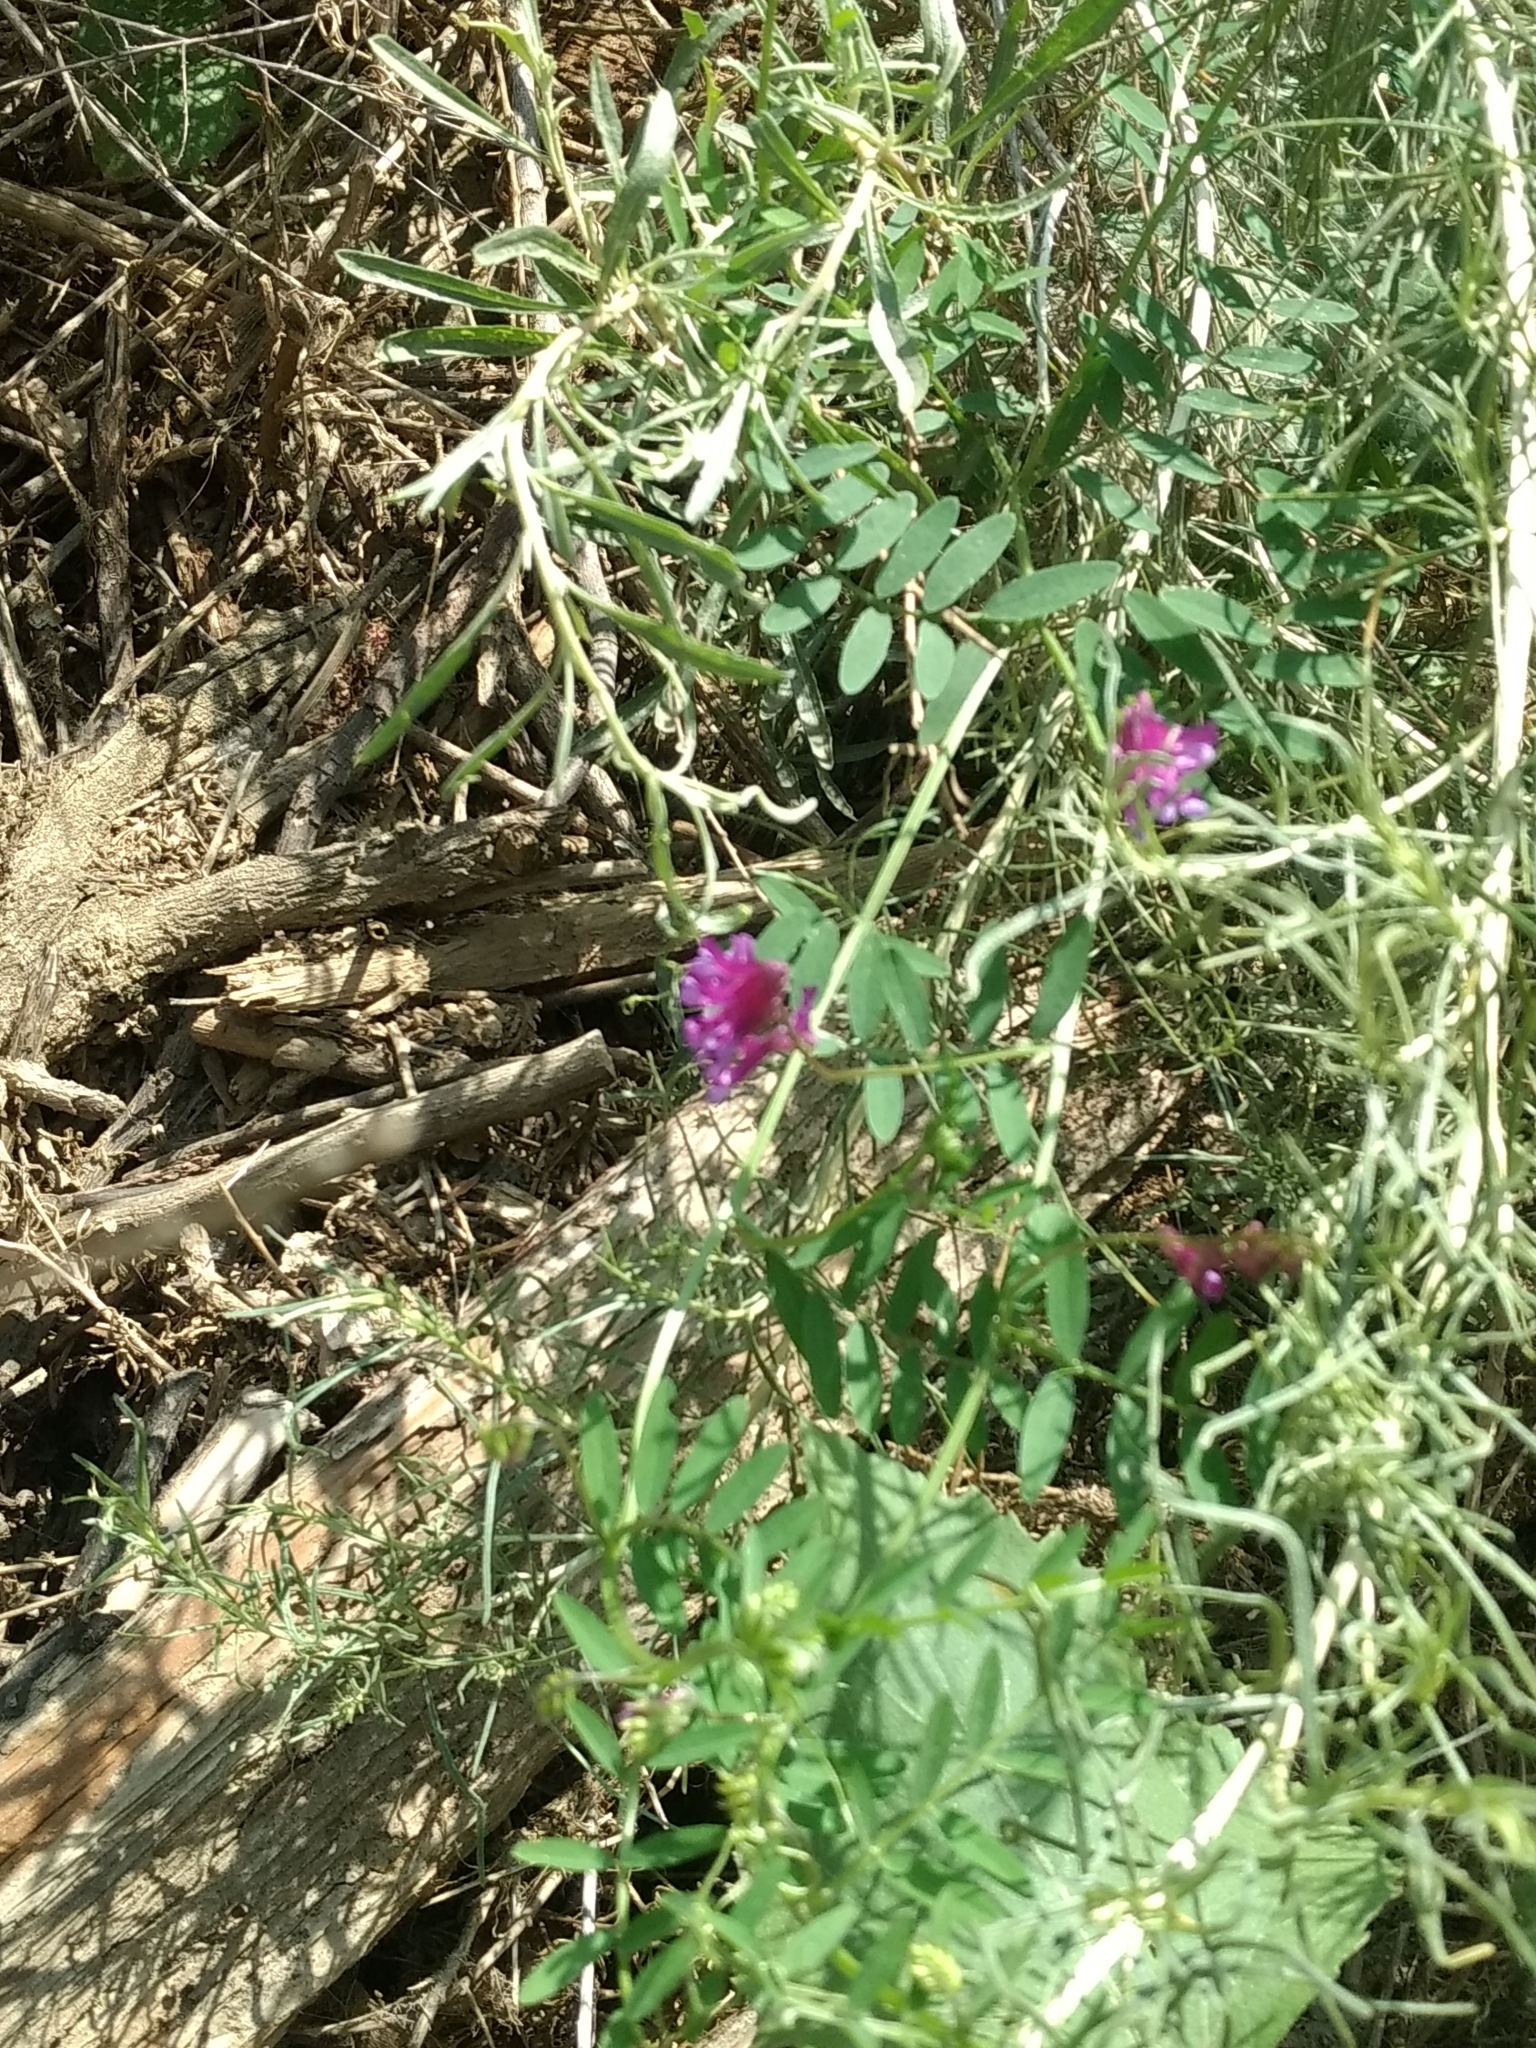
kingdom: Plantae
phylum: Tracheophyta
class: Magnoliopsida
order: Fabales
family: Fabaceae
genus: Vicia
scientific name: Vicia villosa
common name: Fodder vetch
